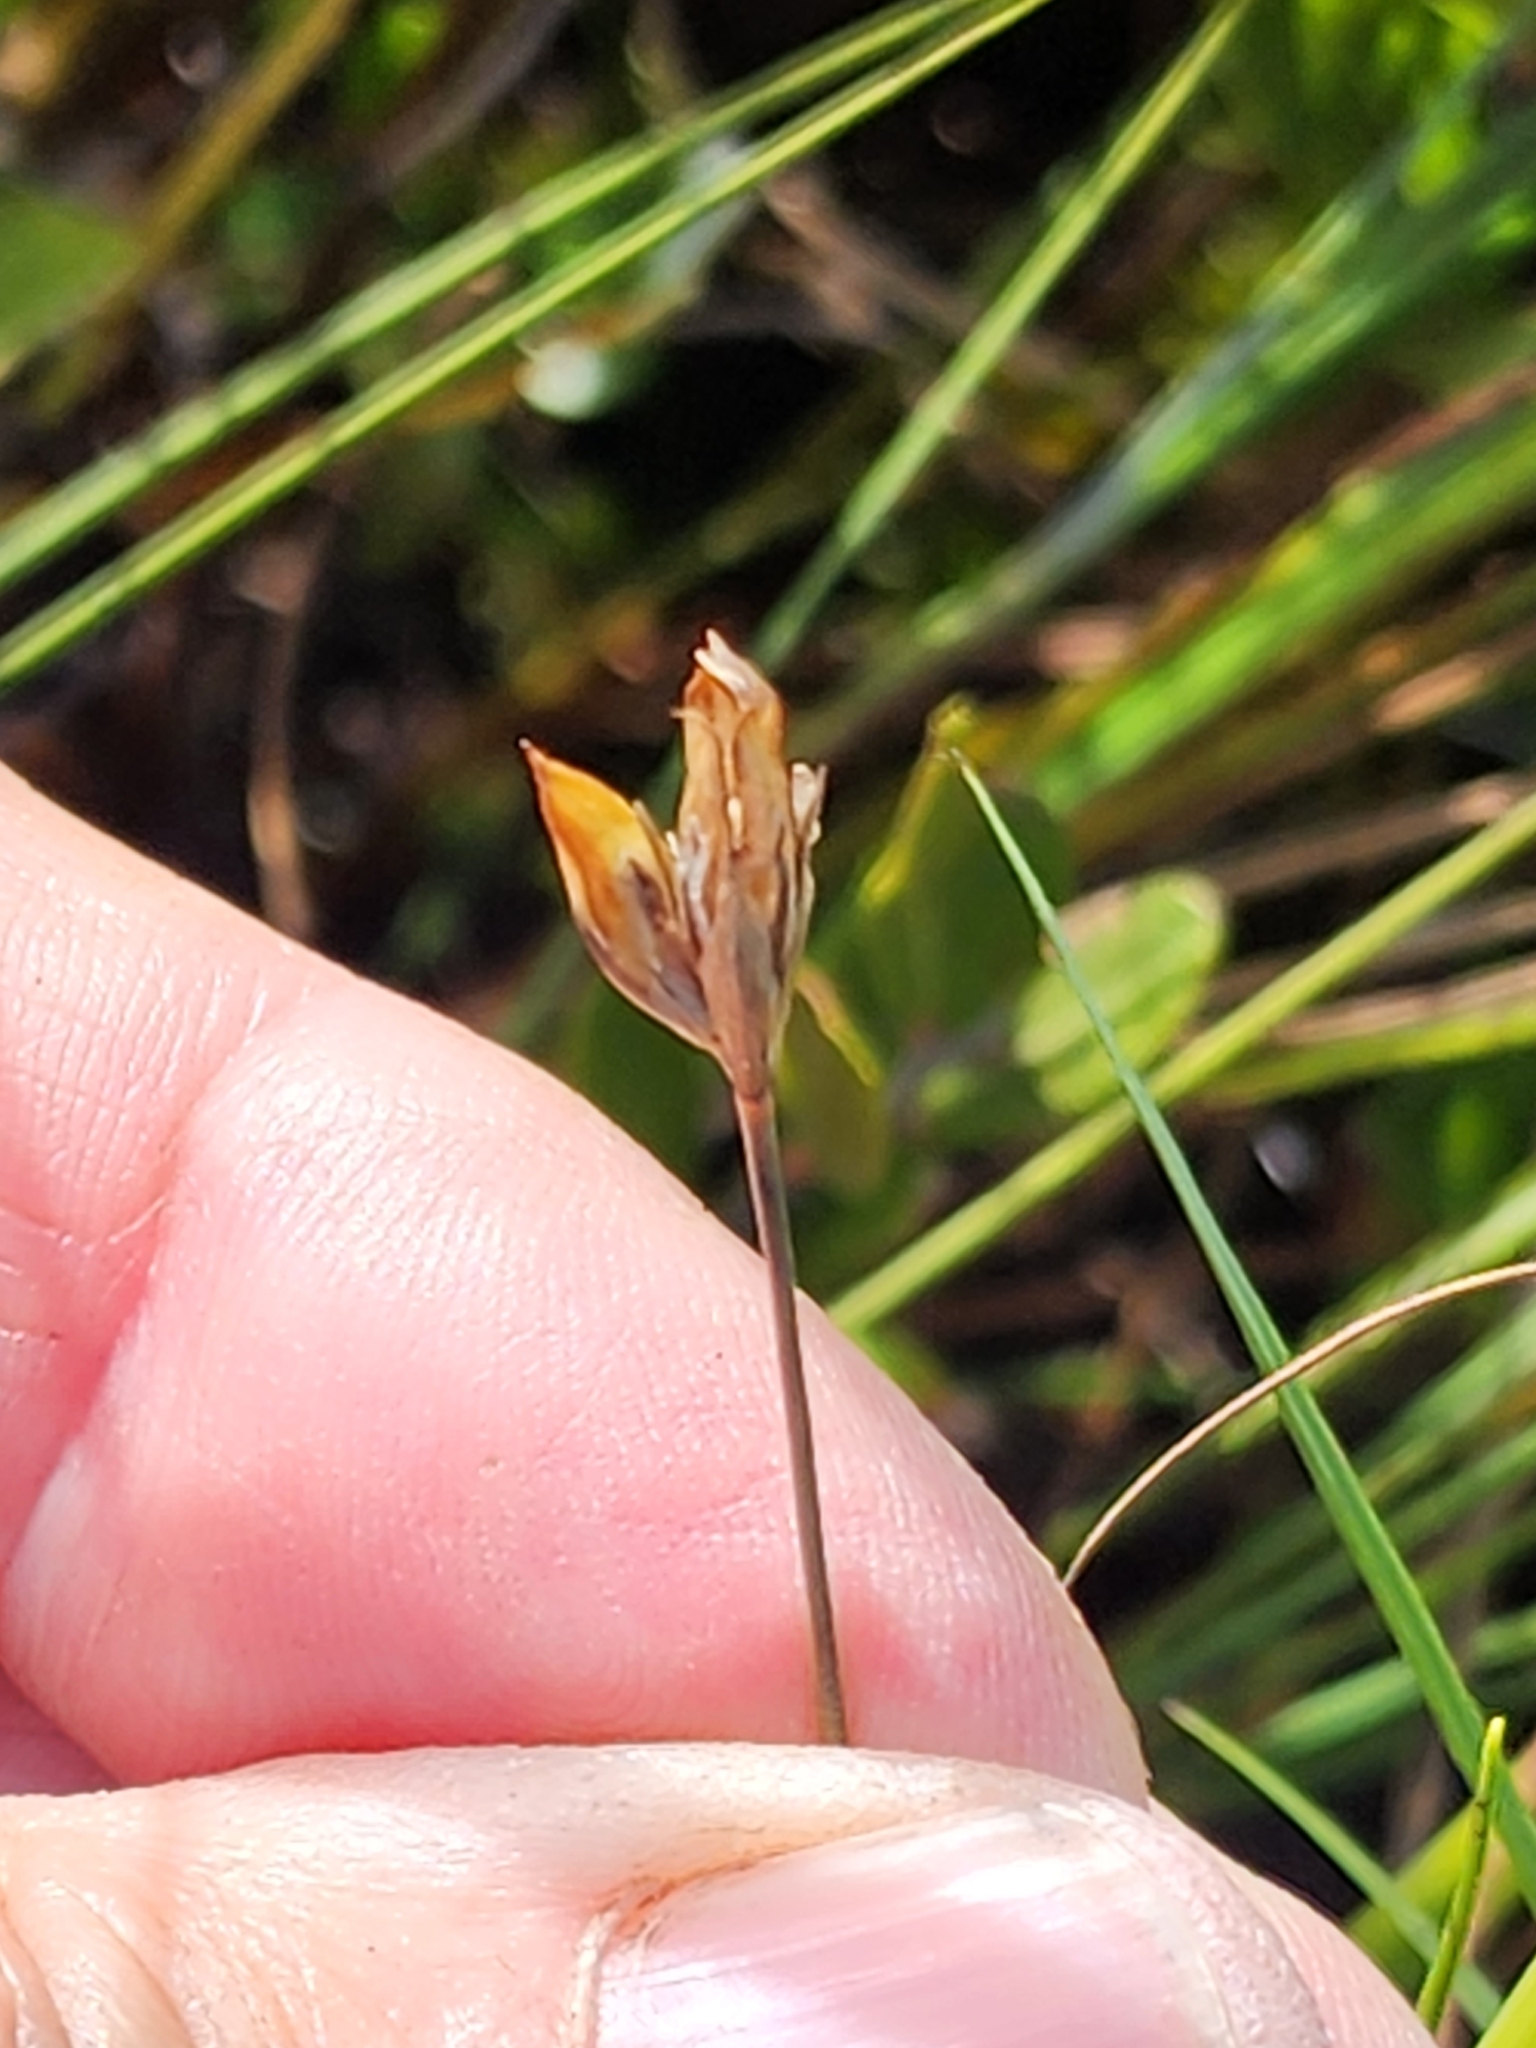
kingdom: Plantae
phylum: Tracheophyta
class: Liliopsida
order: Poales
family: Juncaceae
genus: Juncus
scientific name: Juncus stygius
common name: Bog rush
